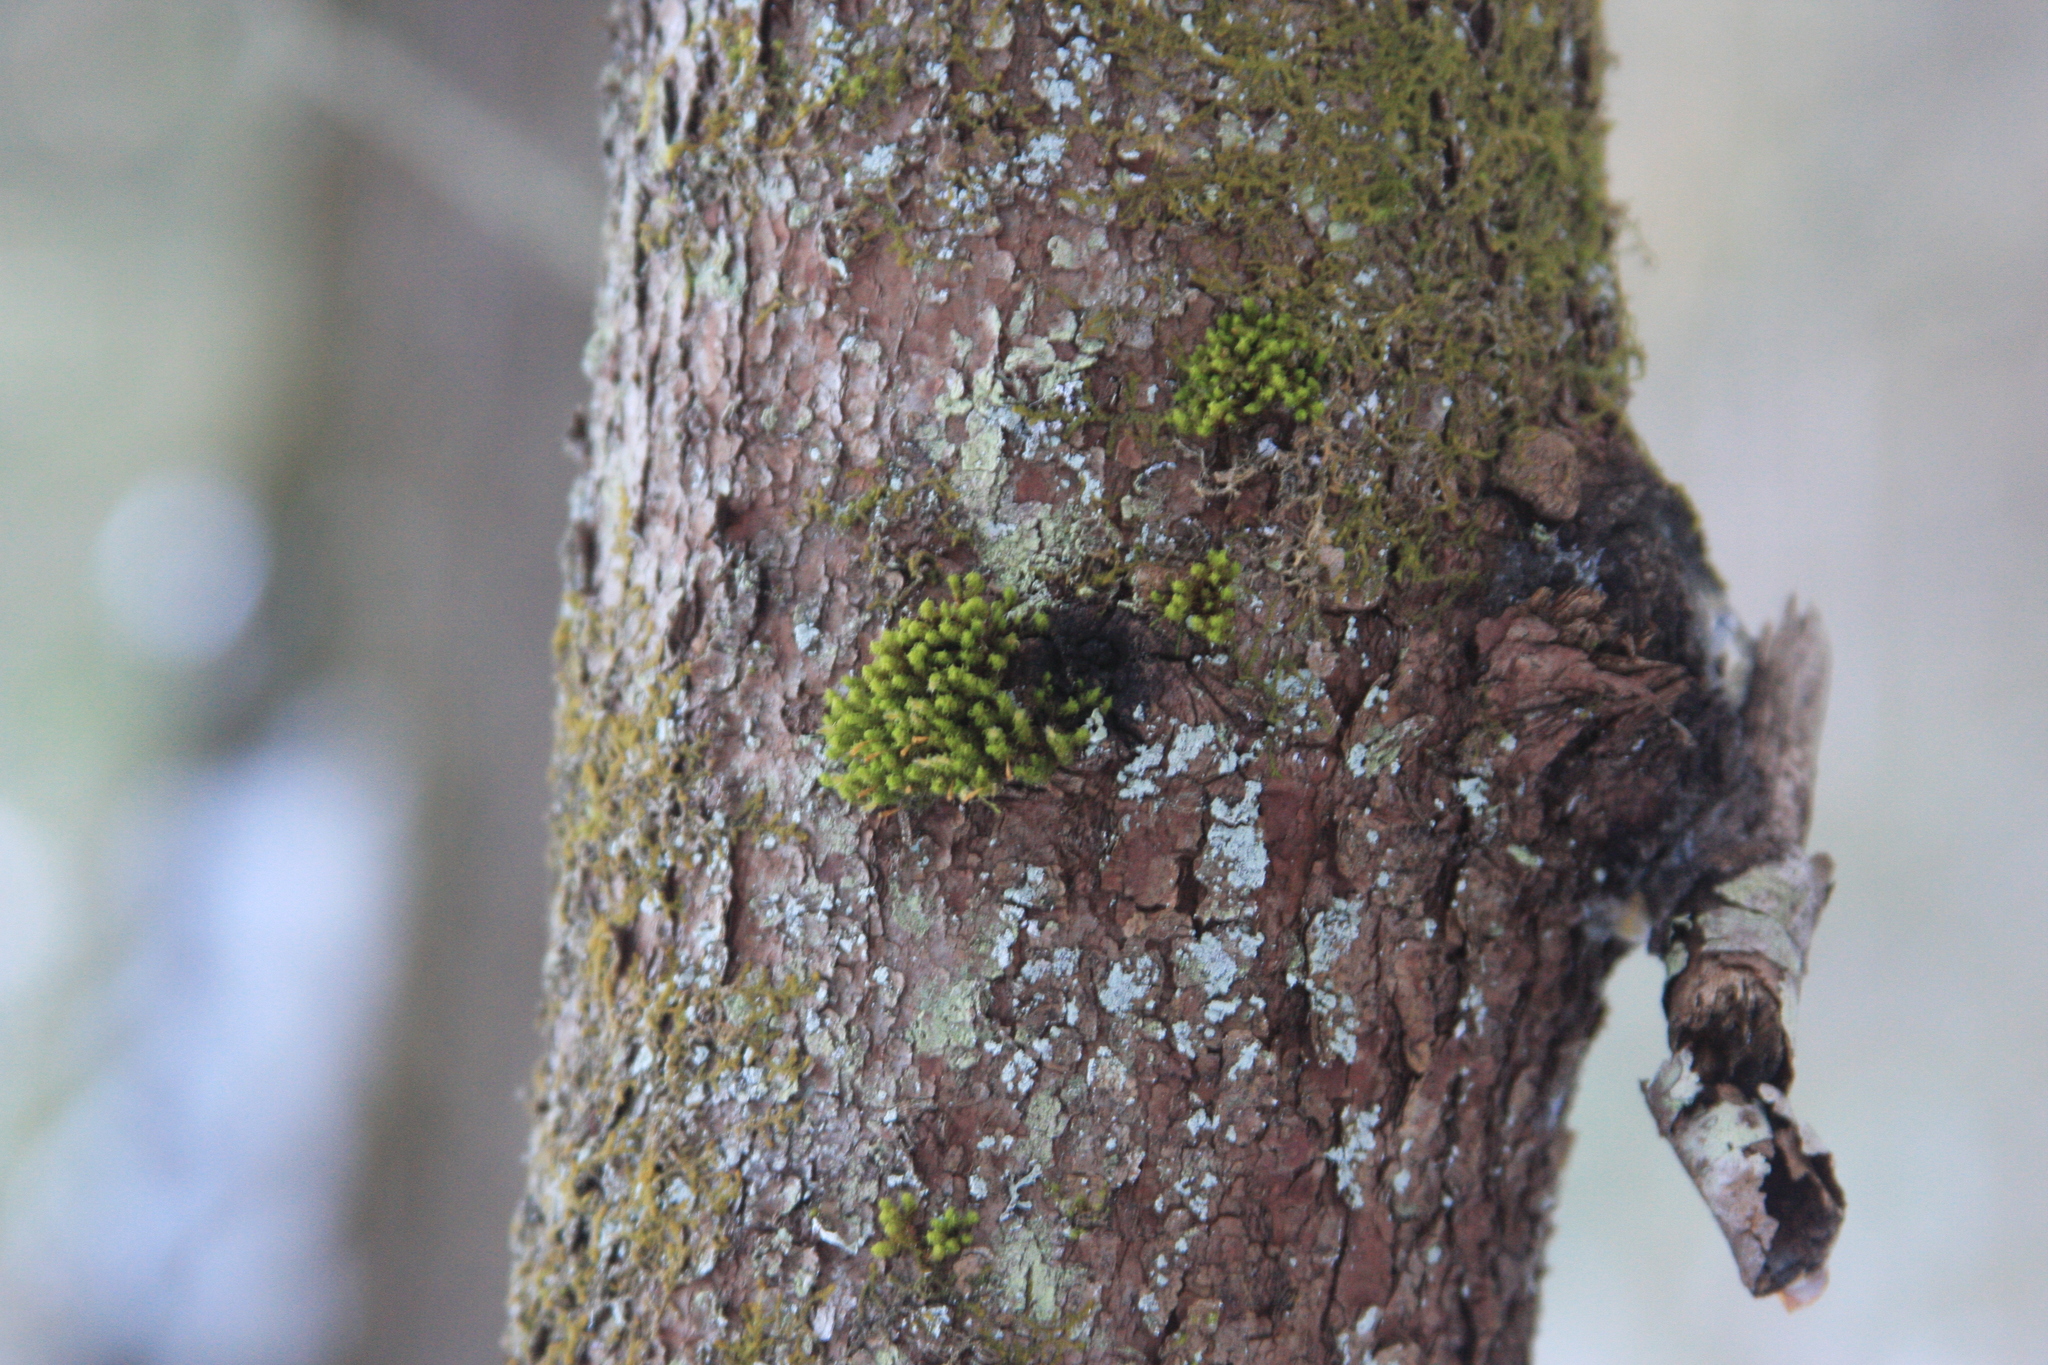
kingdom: Plantae
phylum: Bryophyta
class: Bryopsida
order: Orthotrichales
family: Orthotrichaceae
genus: Ulota
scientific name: Ulota crispa
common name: Crisped pincushion moss
